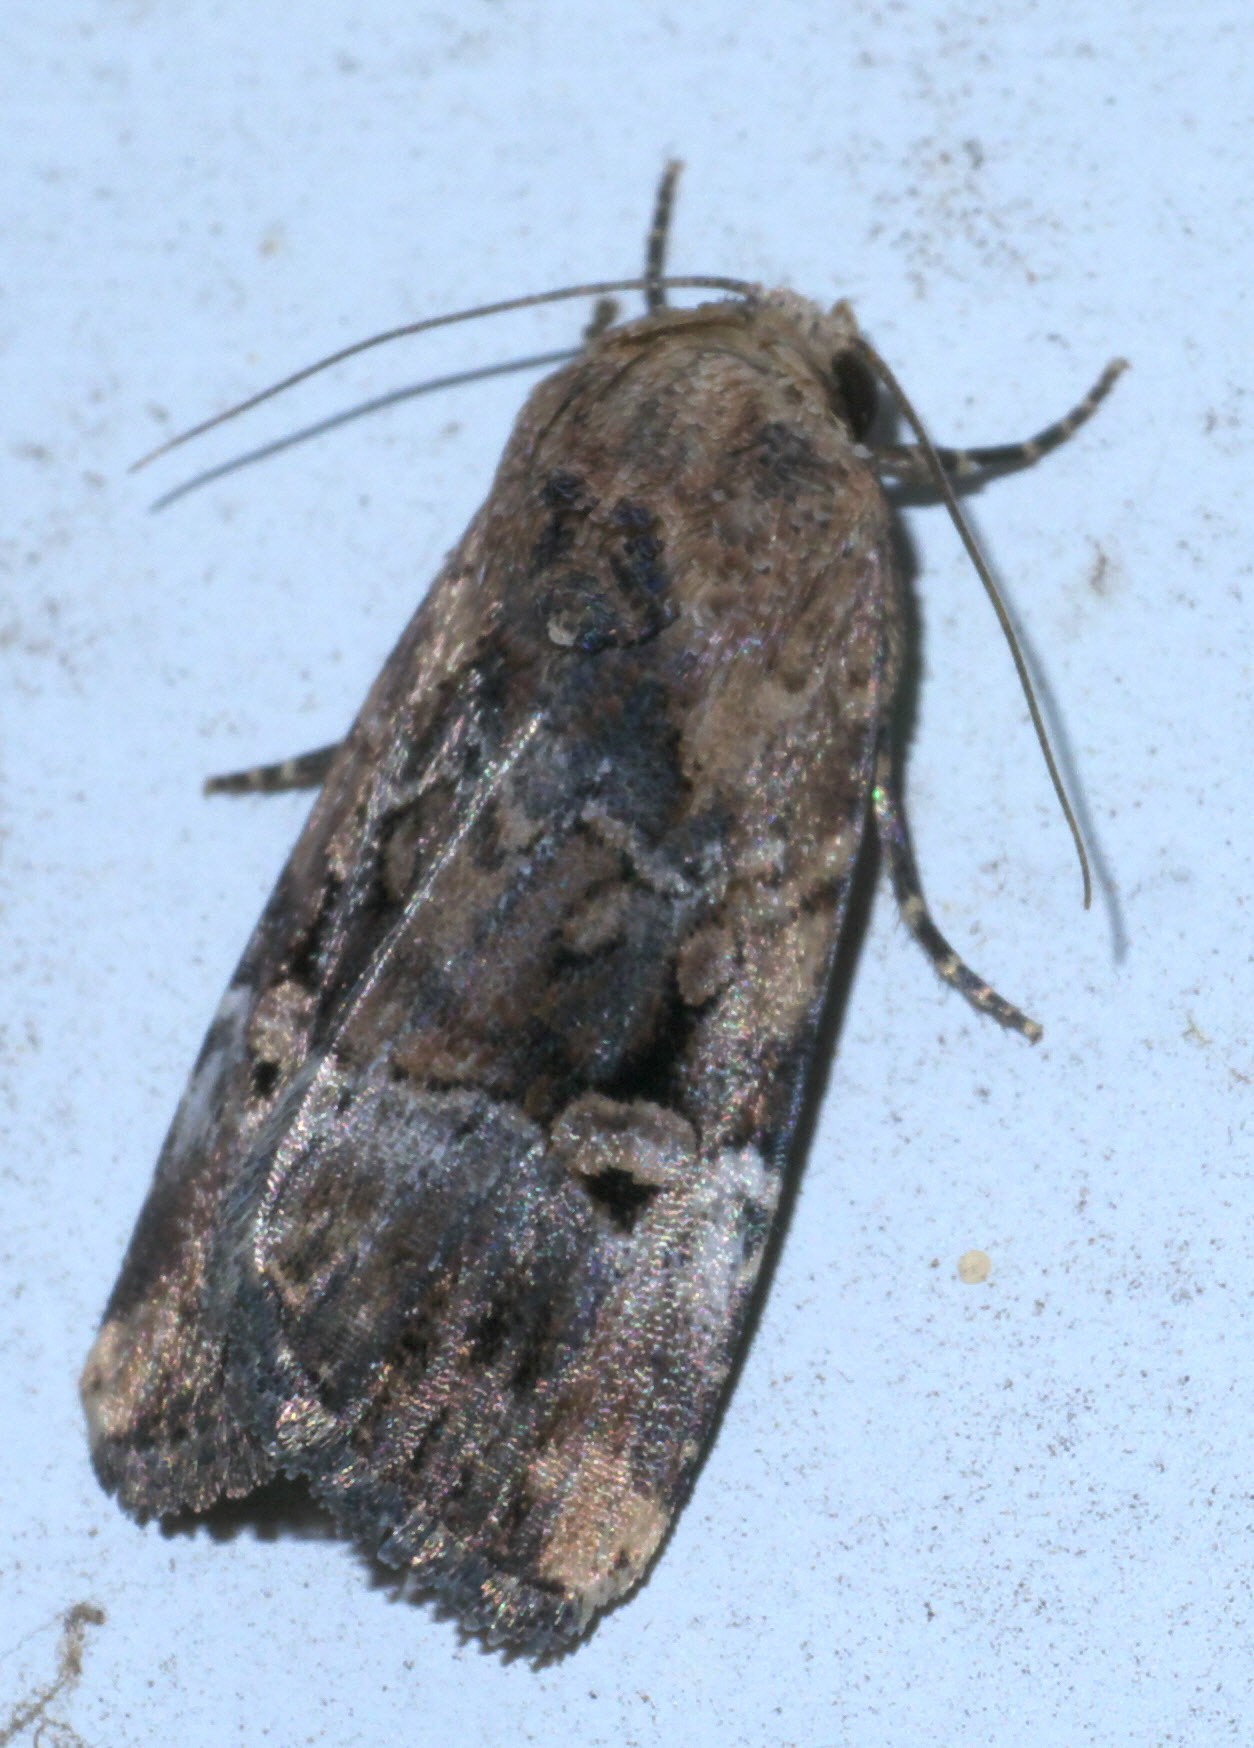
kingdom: Animalia
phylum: Arthropoda
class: Insecta
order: Lepidoptera
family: Noctuidae
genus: Elaphria
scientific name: Elaphria chalcedonia
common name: Chalcedony midget
